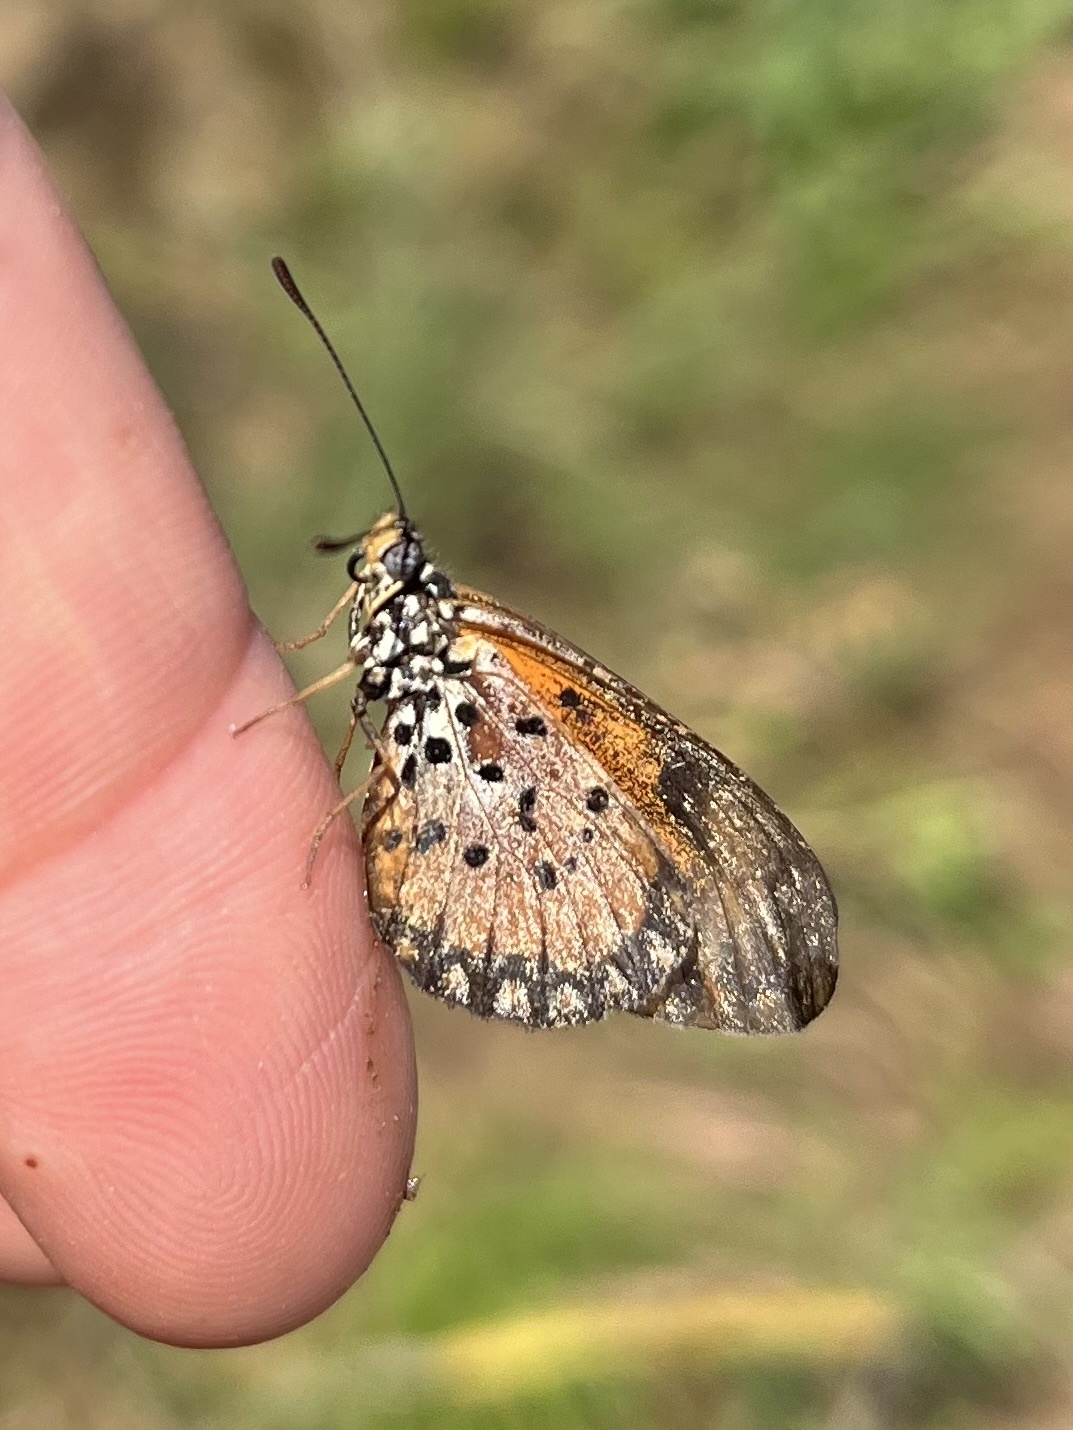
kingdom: Animalia
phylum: Arthropoda
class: Insecta
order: Lepidoptera
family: Nymphalidae
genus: Acraea
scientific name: Acraea Telchinia serena
